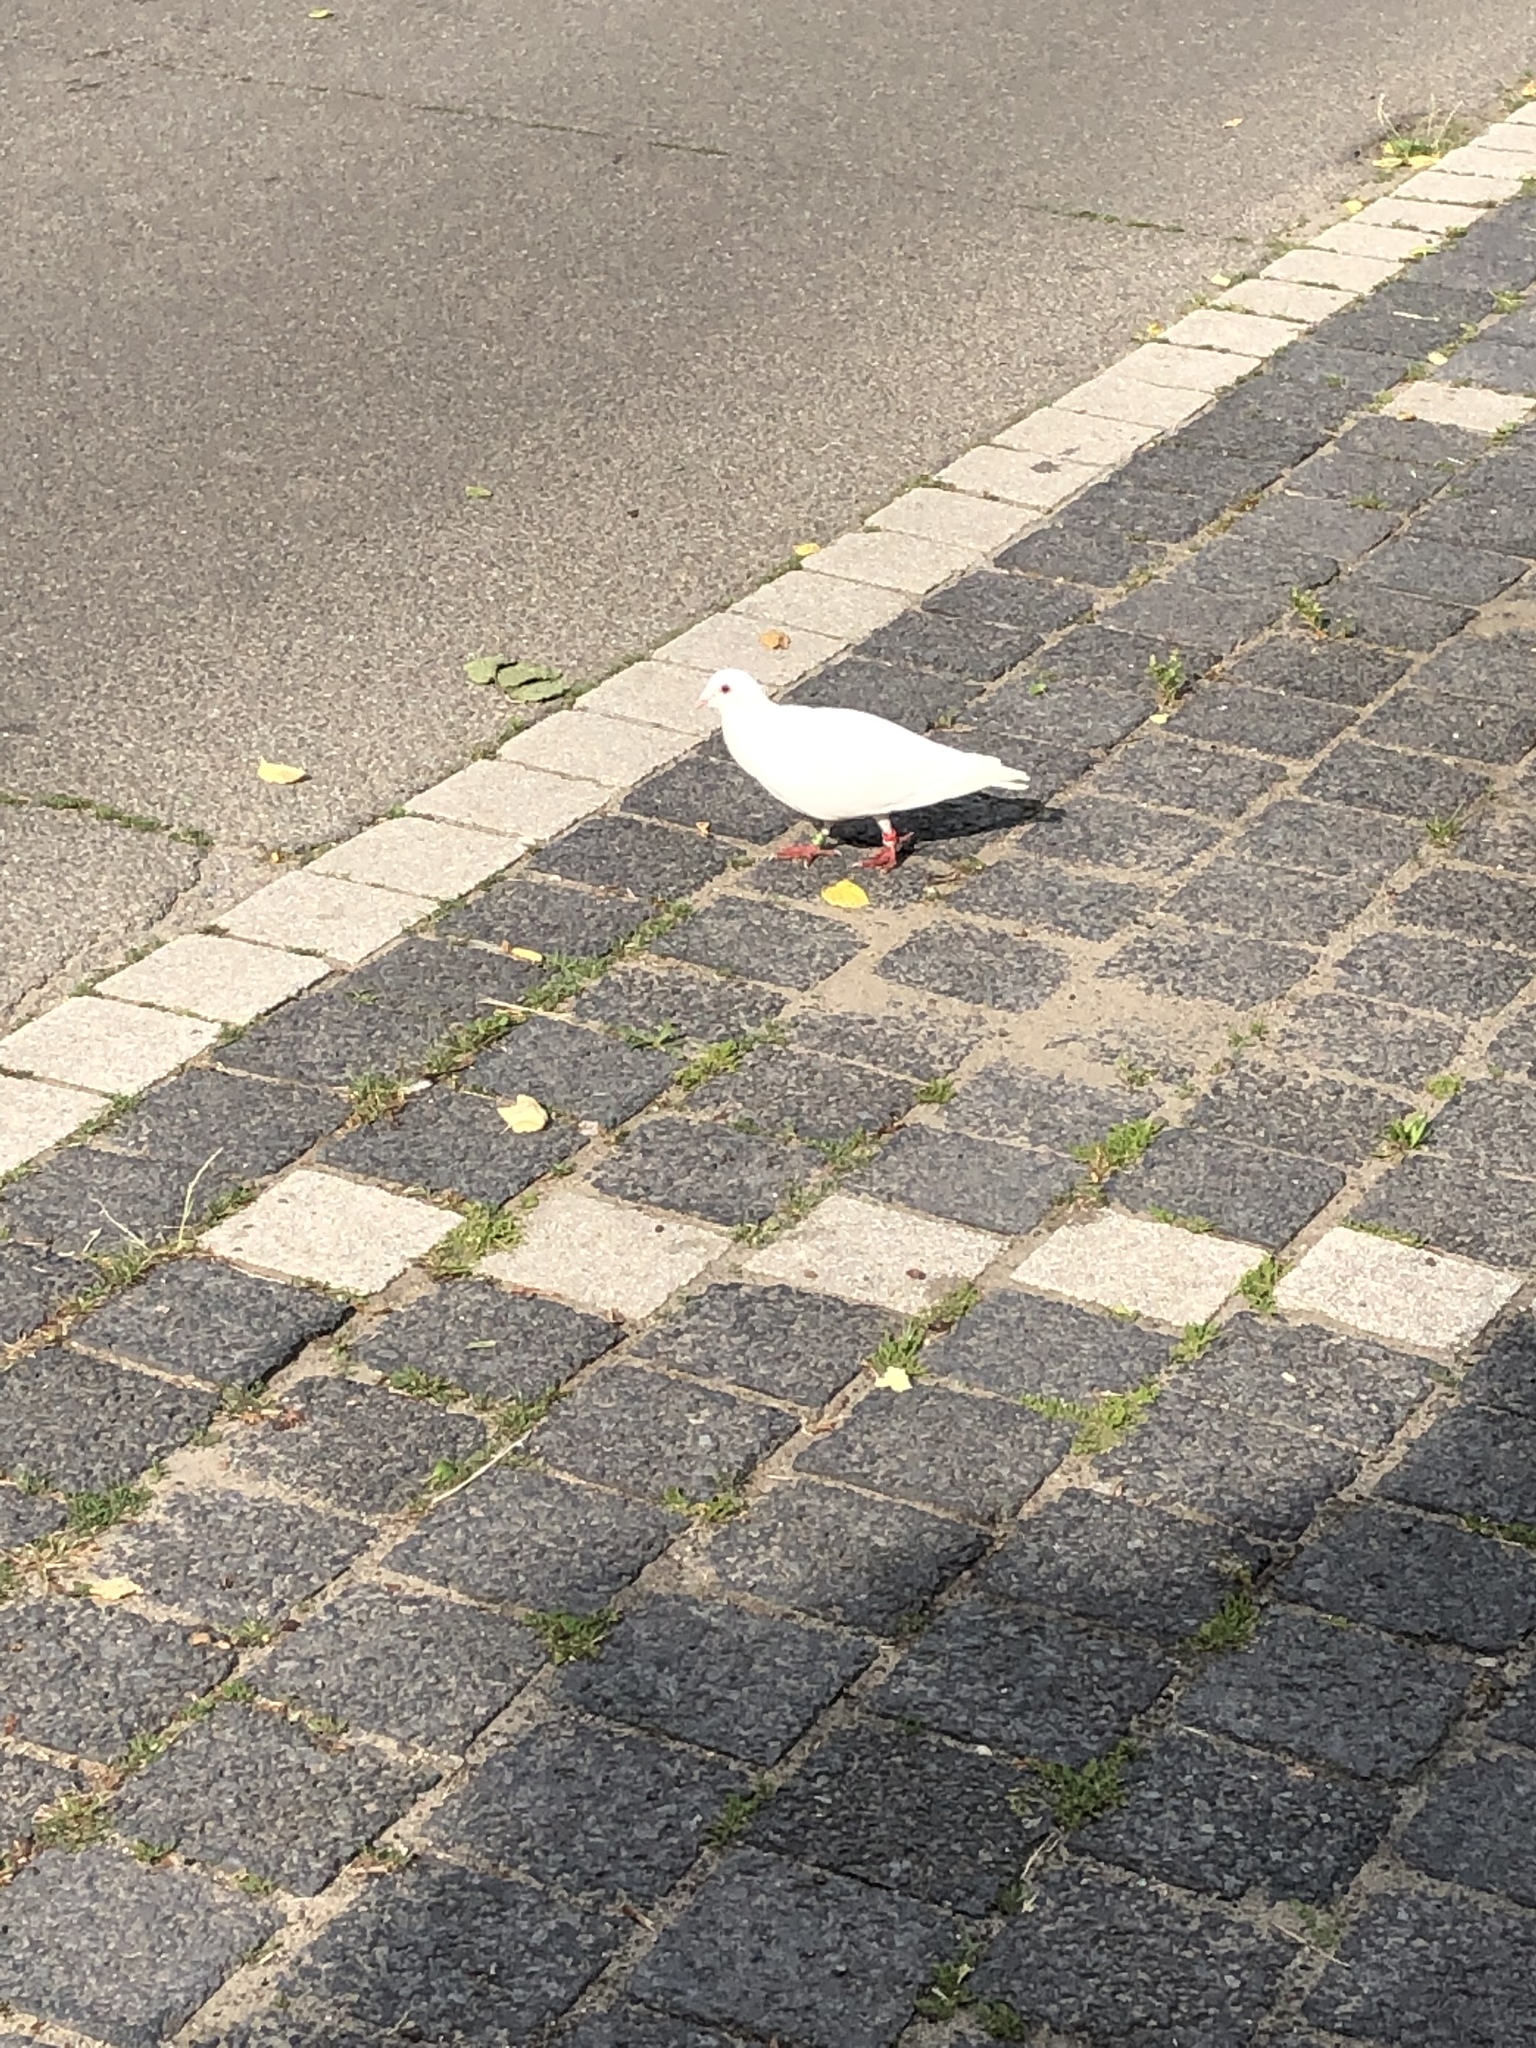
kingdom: Animalia
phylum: Chordata
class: Aves
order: Columbiformes
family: Columbidae
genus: Columba
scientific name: Columba livia
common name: Rock pigeon
